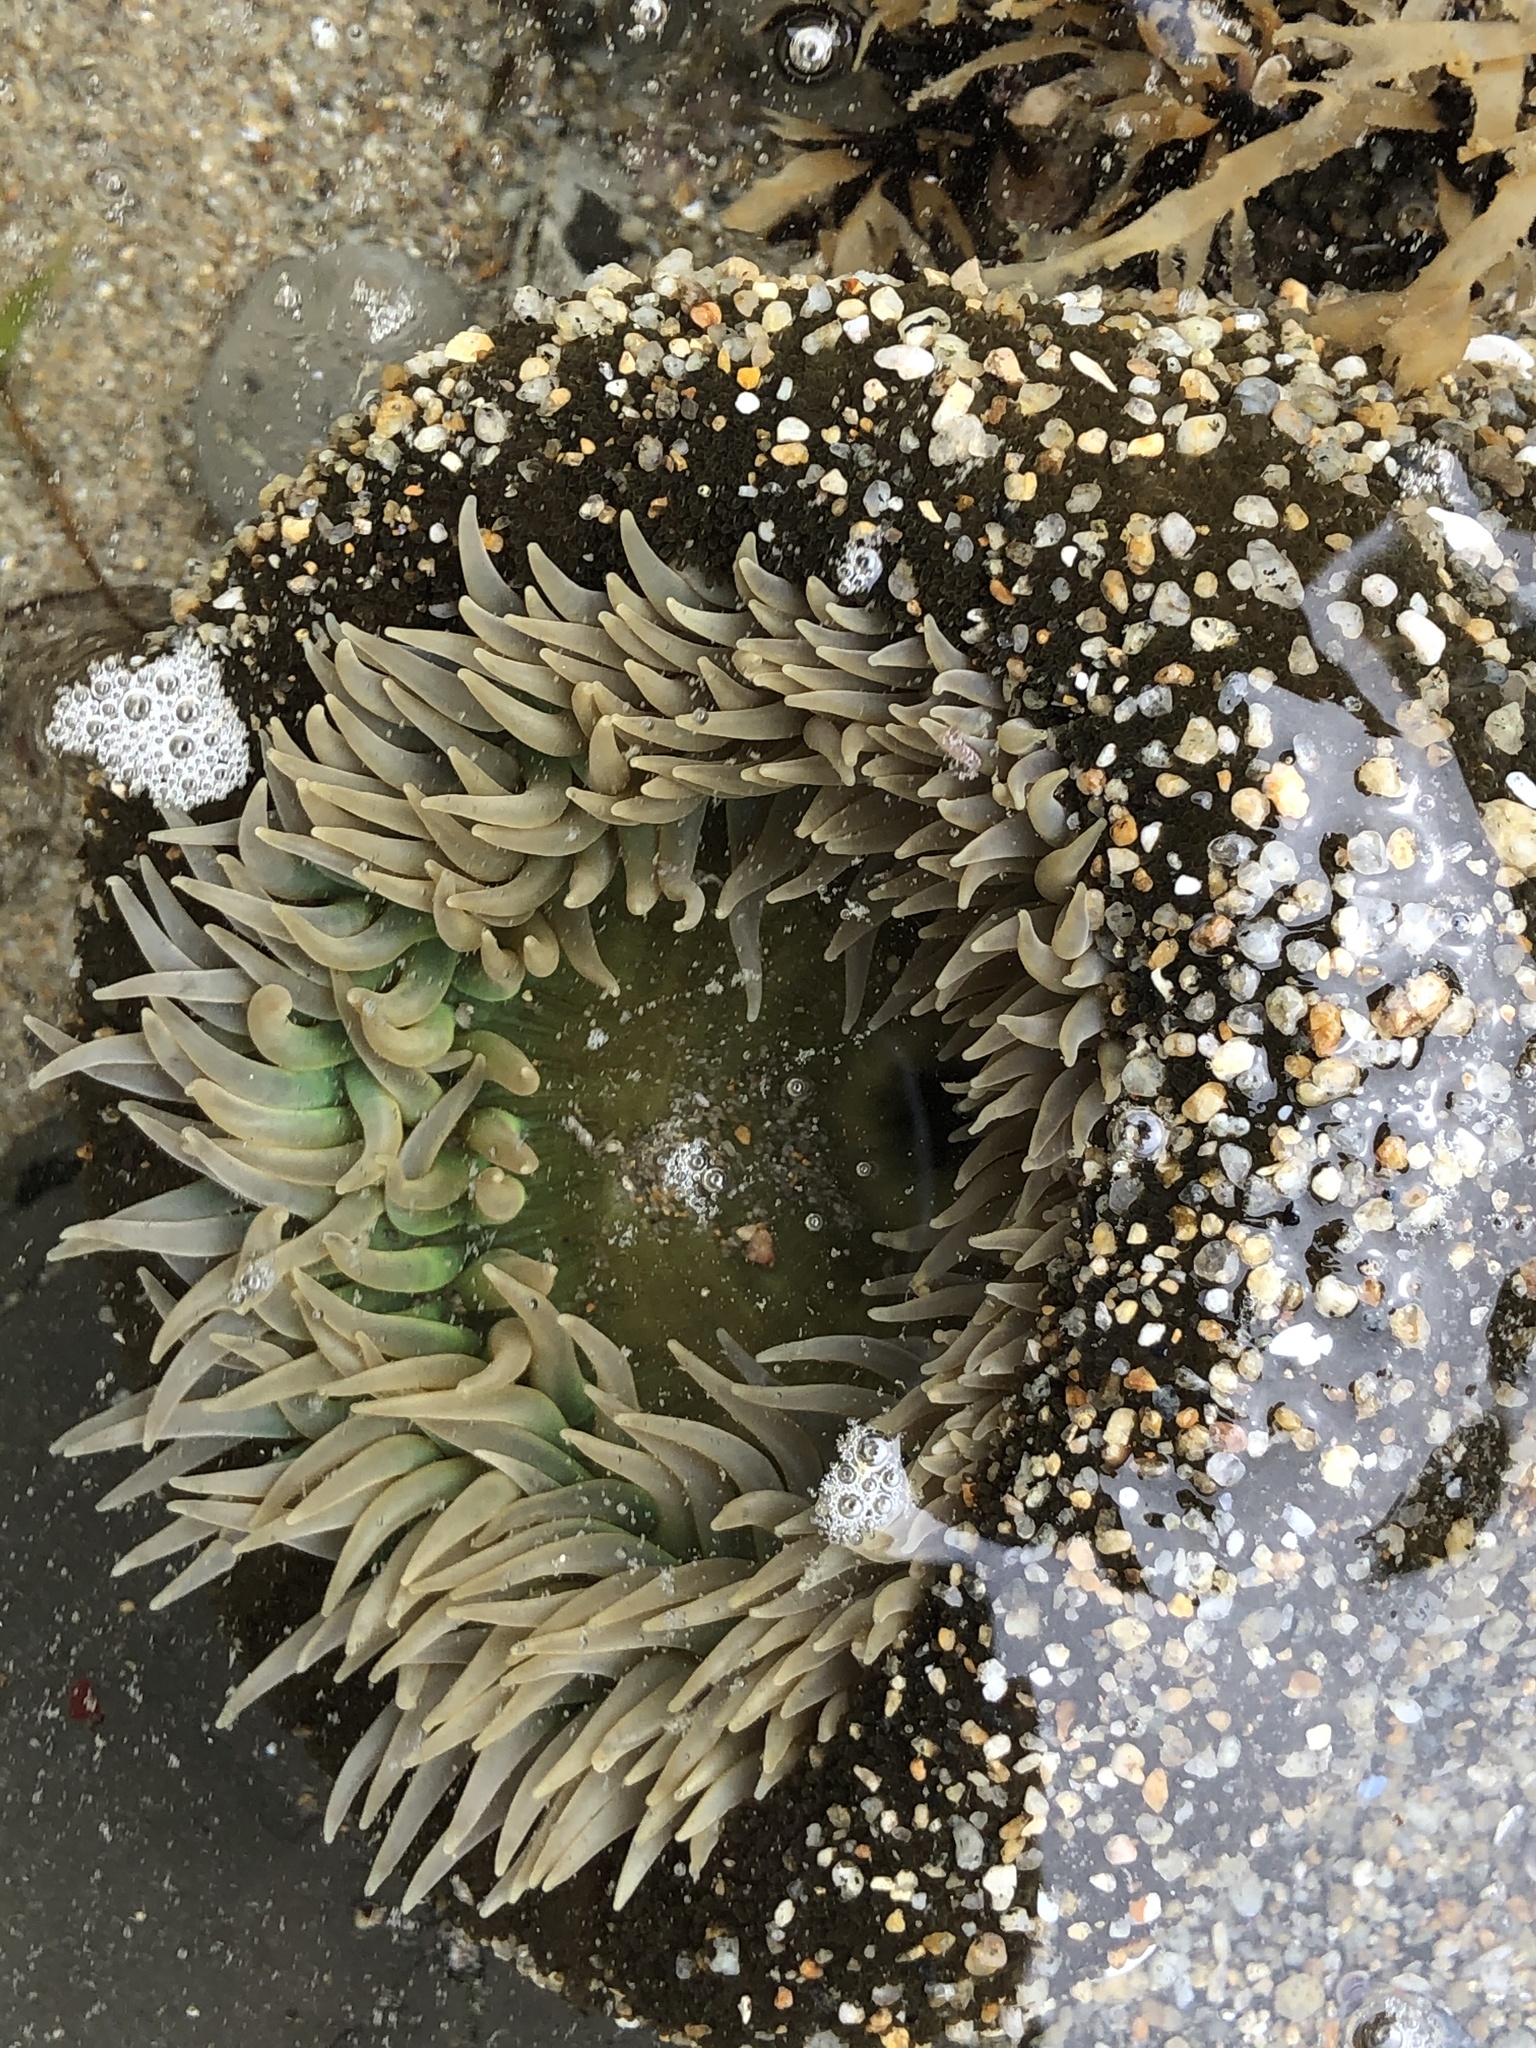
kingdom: Animalia
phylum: Cnidaria
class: Anthozoa
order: Actiniaria
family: Actiniidae
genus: Anthopleura
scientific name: Anthopleura xanthogrammica
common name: Giant green anemone
